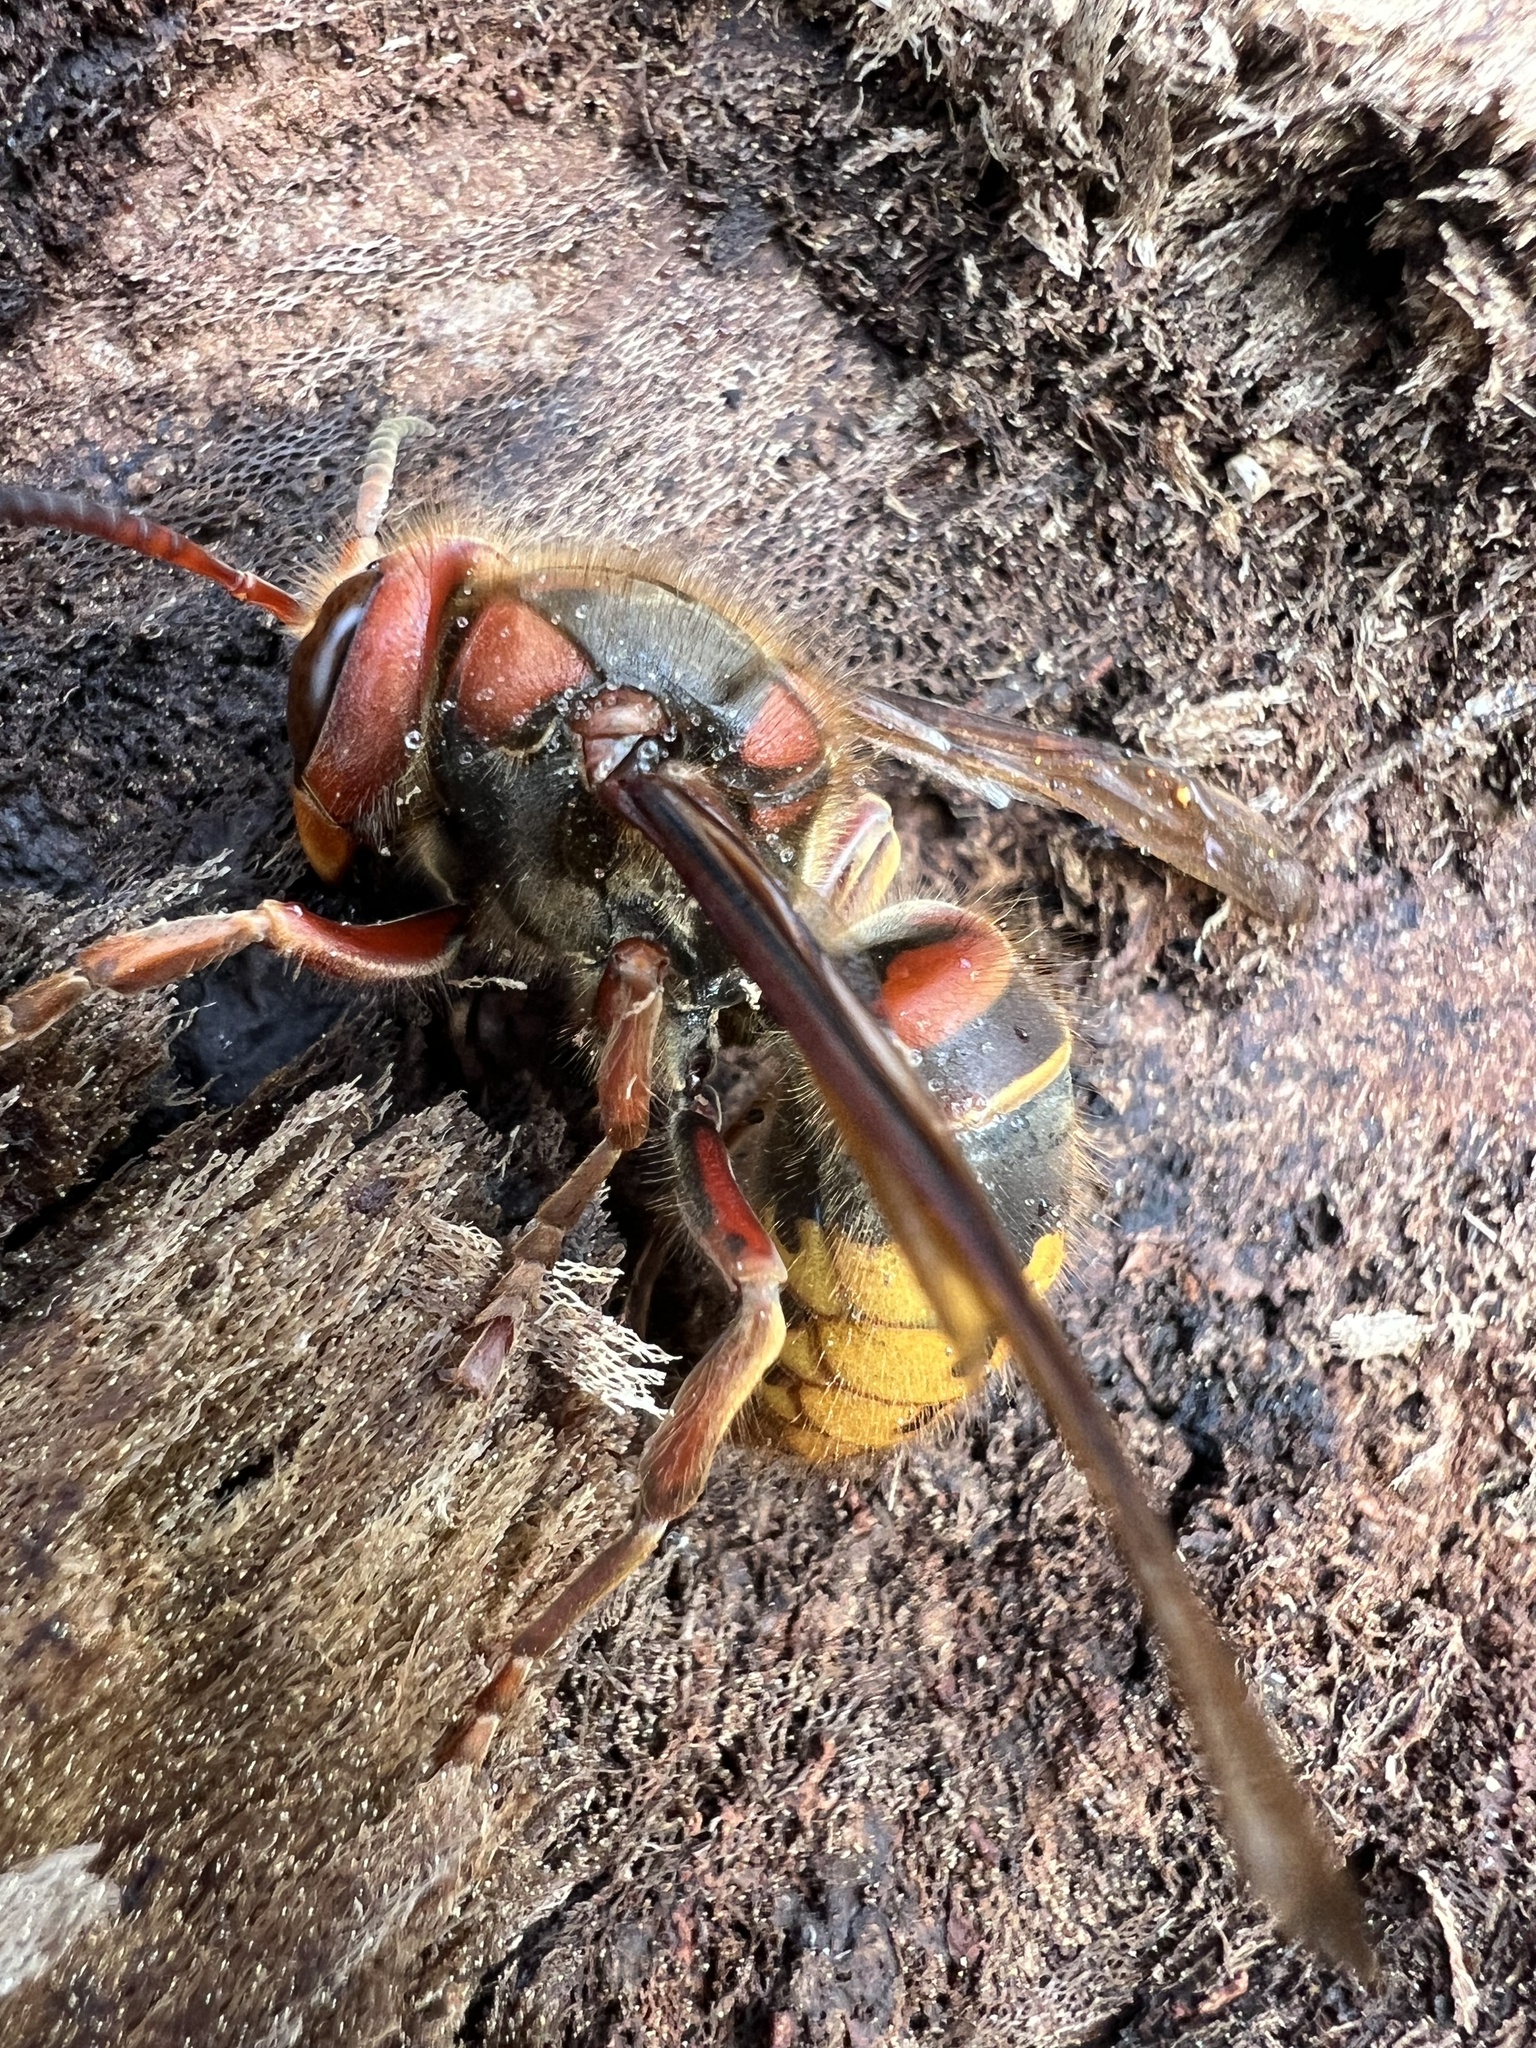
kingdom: Animalia
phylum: Arthropoda
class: Insecta
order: Hymenoptera
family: Vespidae
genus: Vespa
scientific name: Vespa crabro
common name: Hornet
